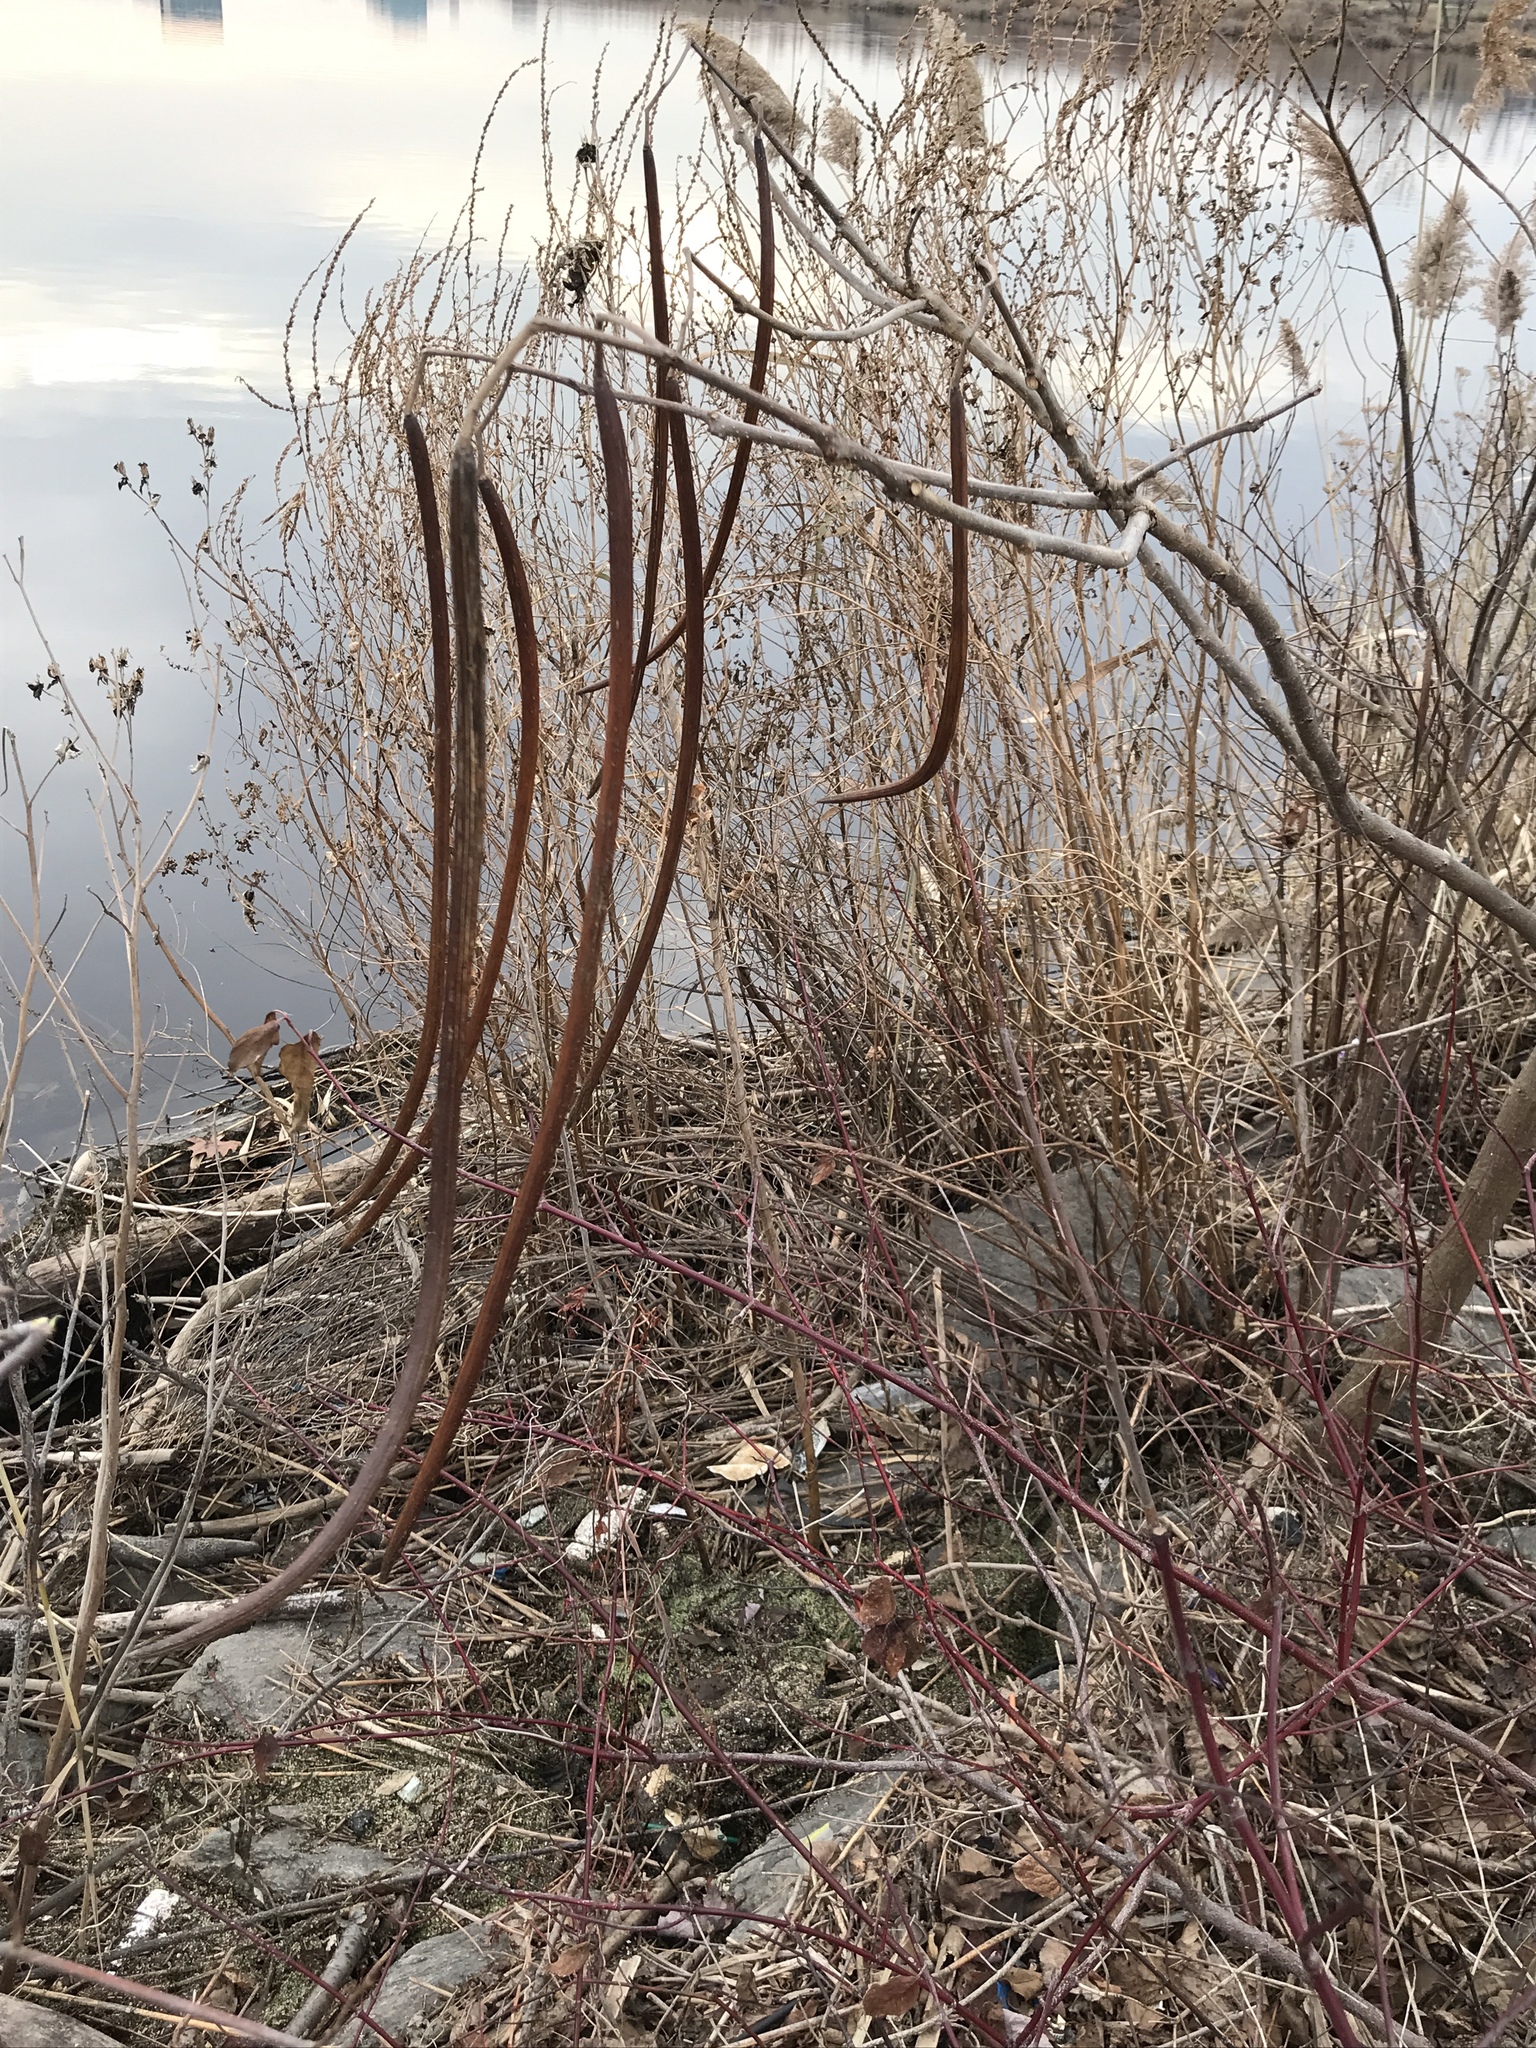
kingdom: Plantae
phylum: Tracheophyta
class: Magnoliopsida
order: Lamiales
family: Bignoniaceae
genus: Catalpa
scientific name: Catalpa speciosa
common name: Northern catalpa
